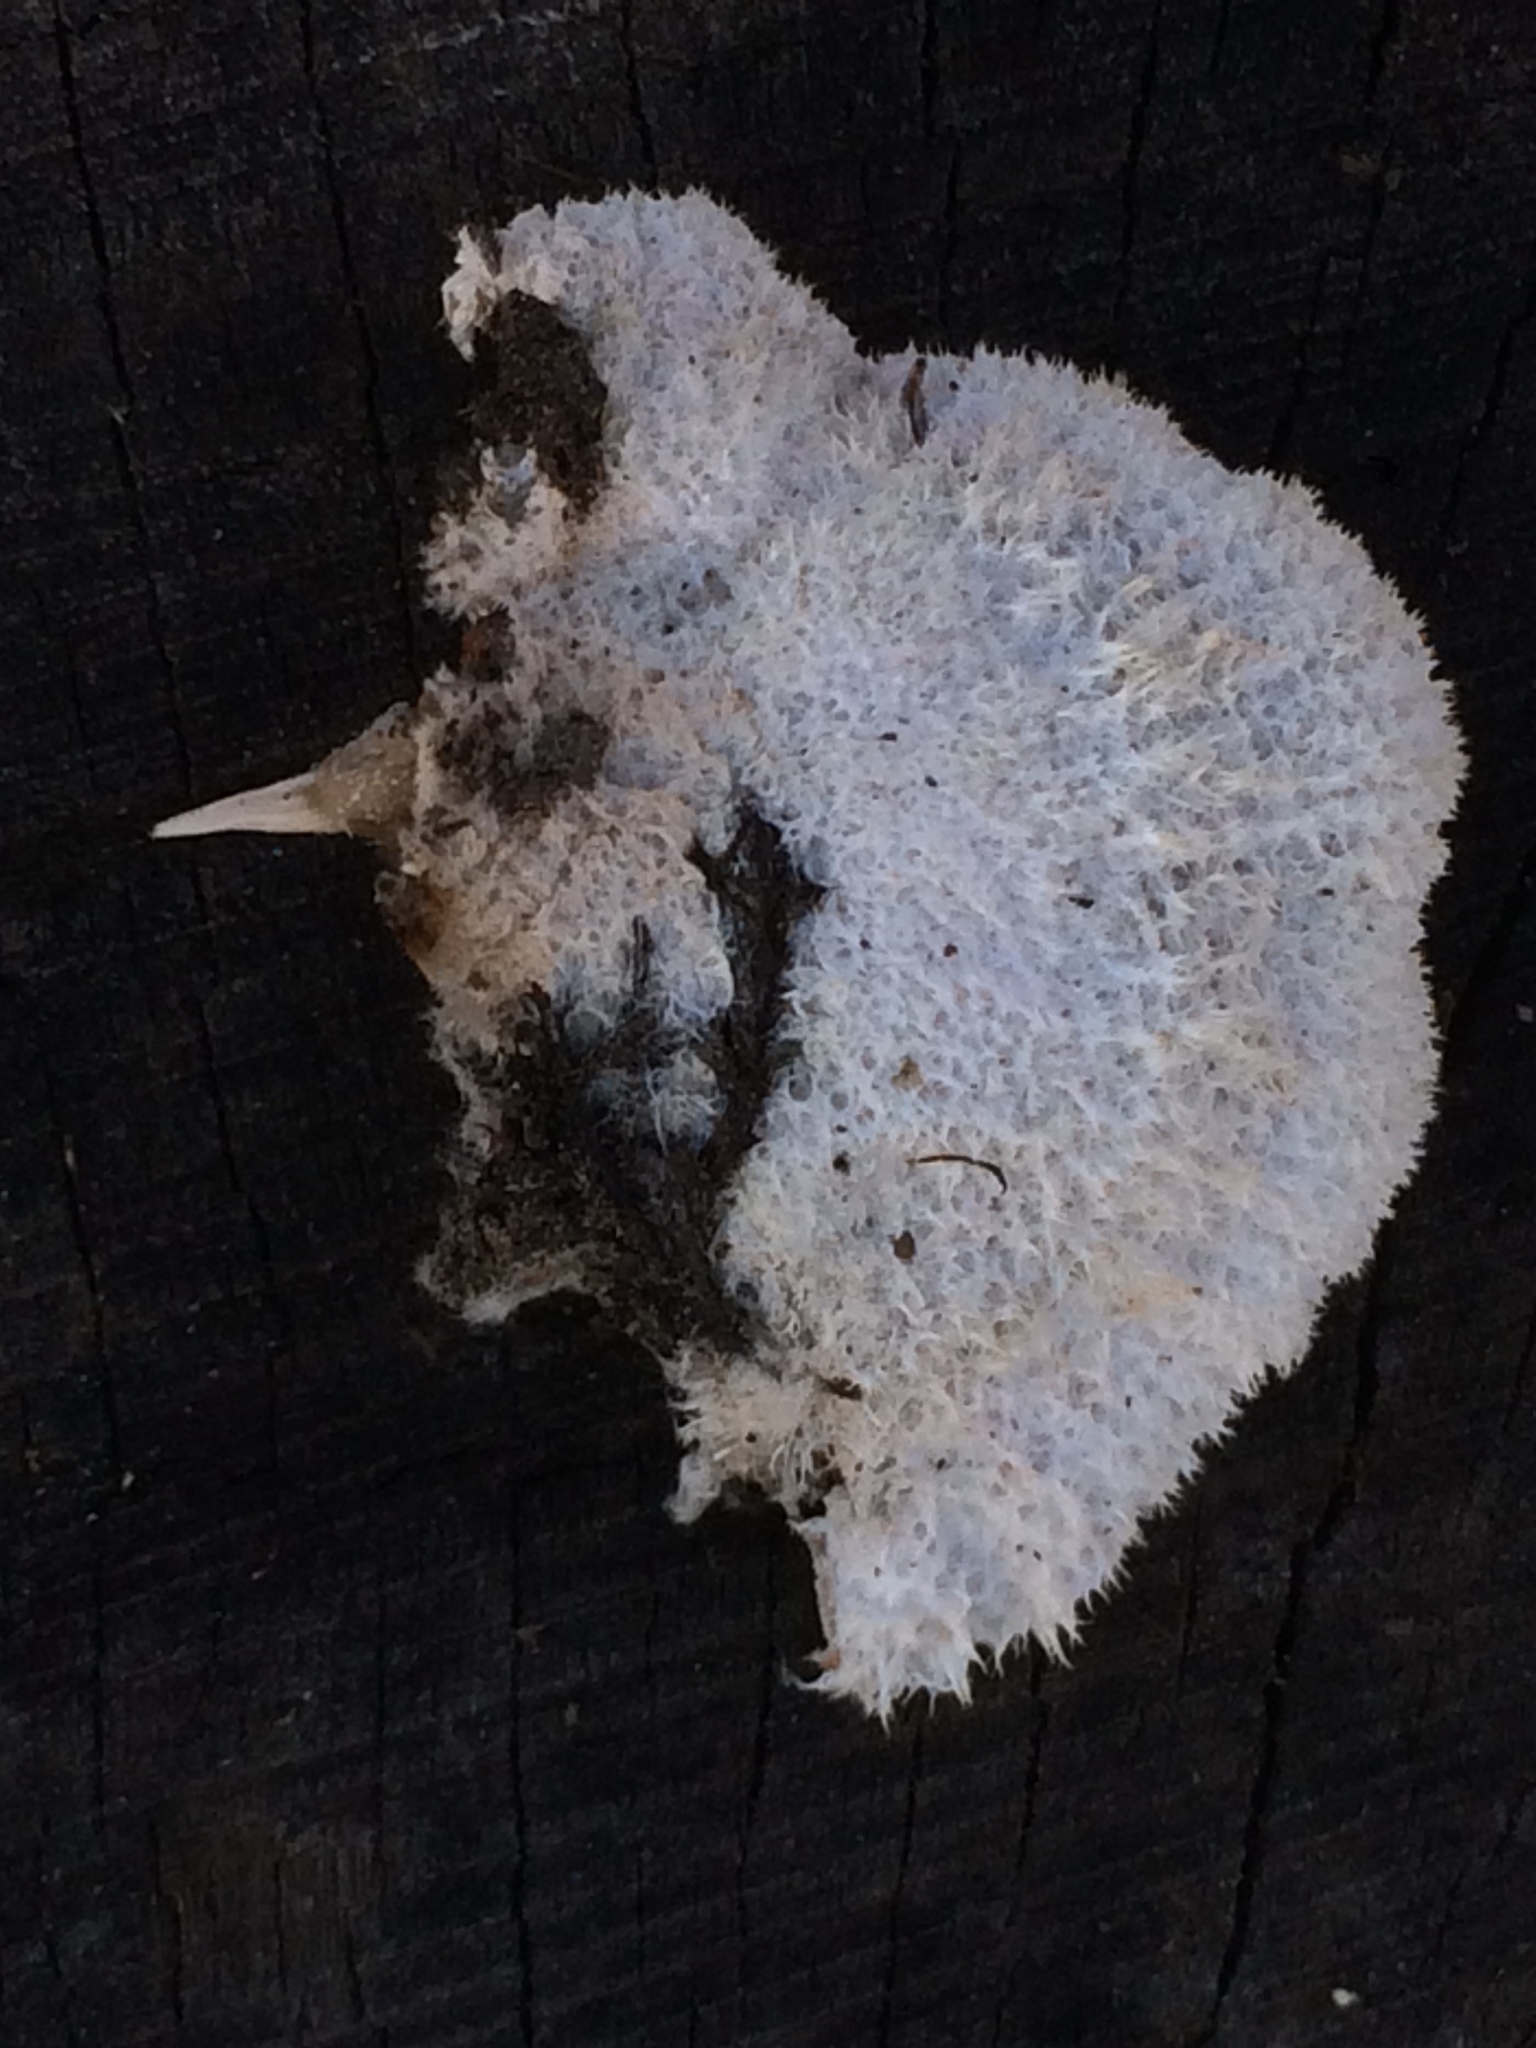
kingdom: Fungi
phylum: Basidiomycota
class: Agaricomycetes
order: Agaricales
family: Schizophyllaceae
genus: Schizophyllum
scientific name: Schizophyllum commune
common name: Common porecrust
